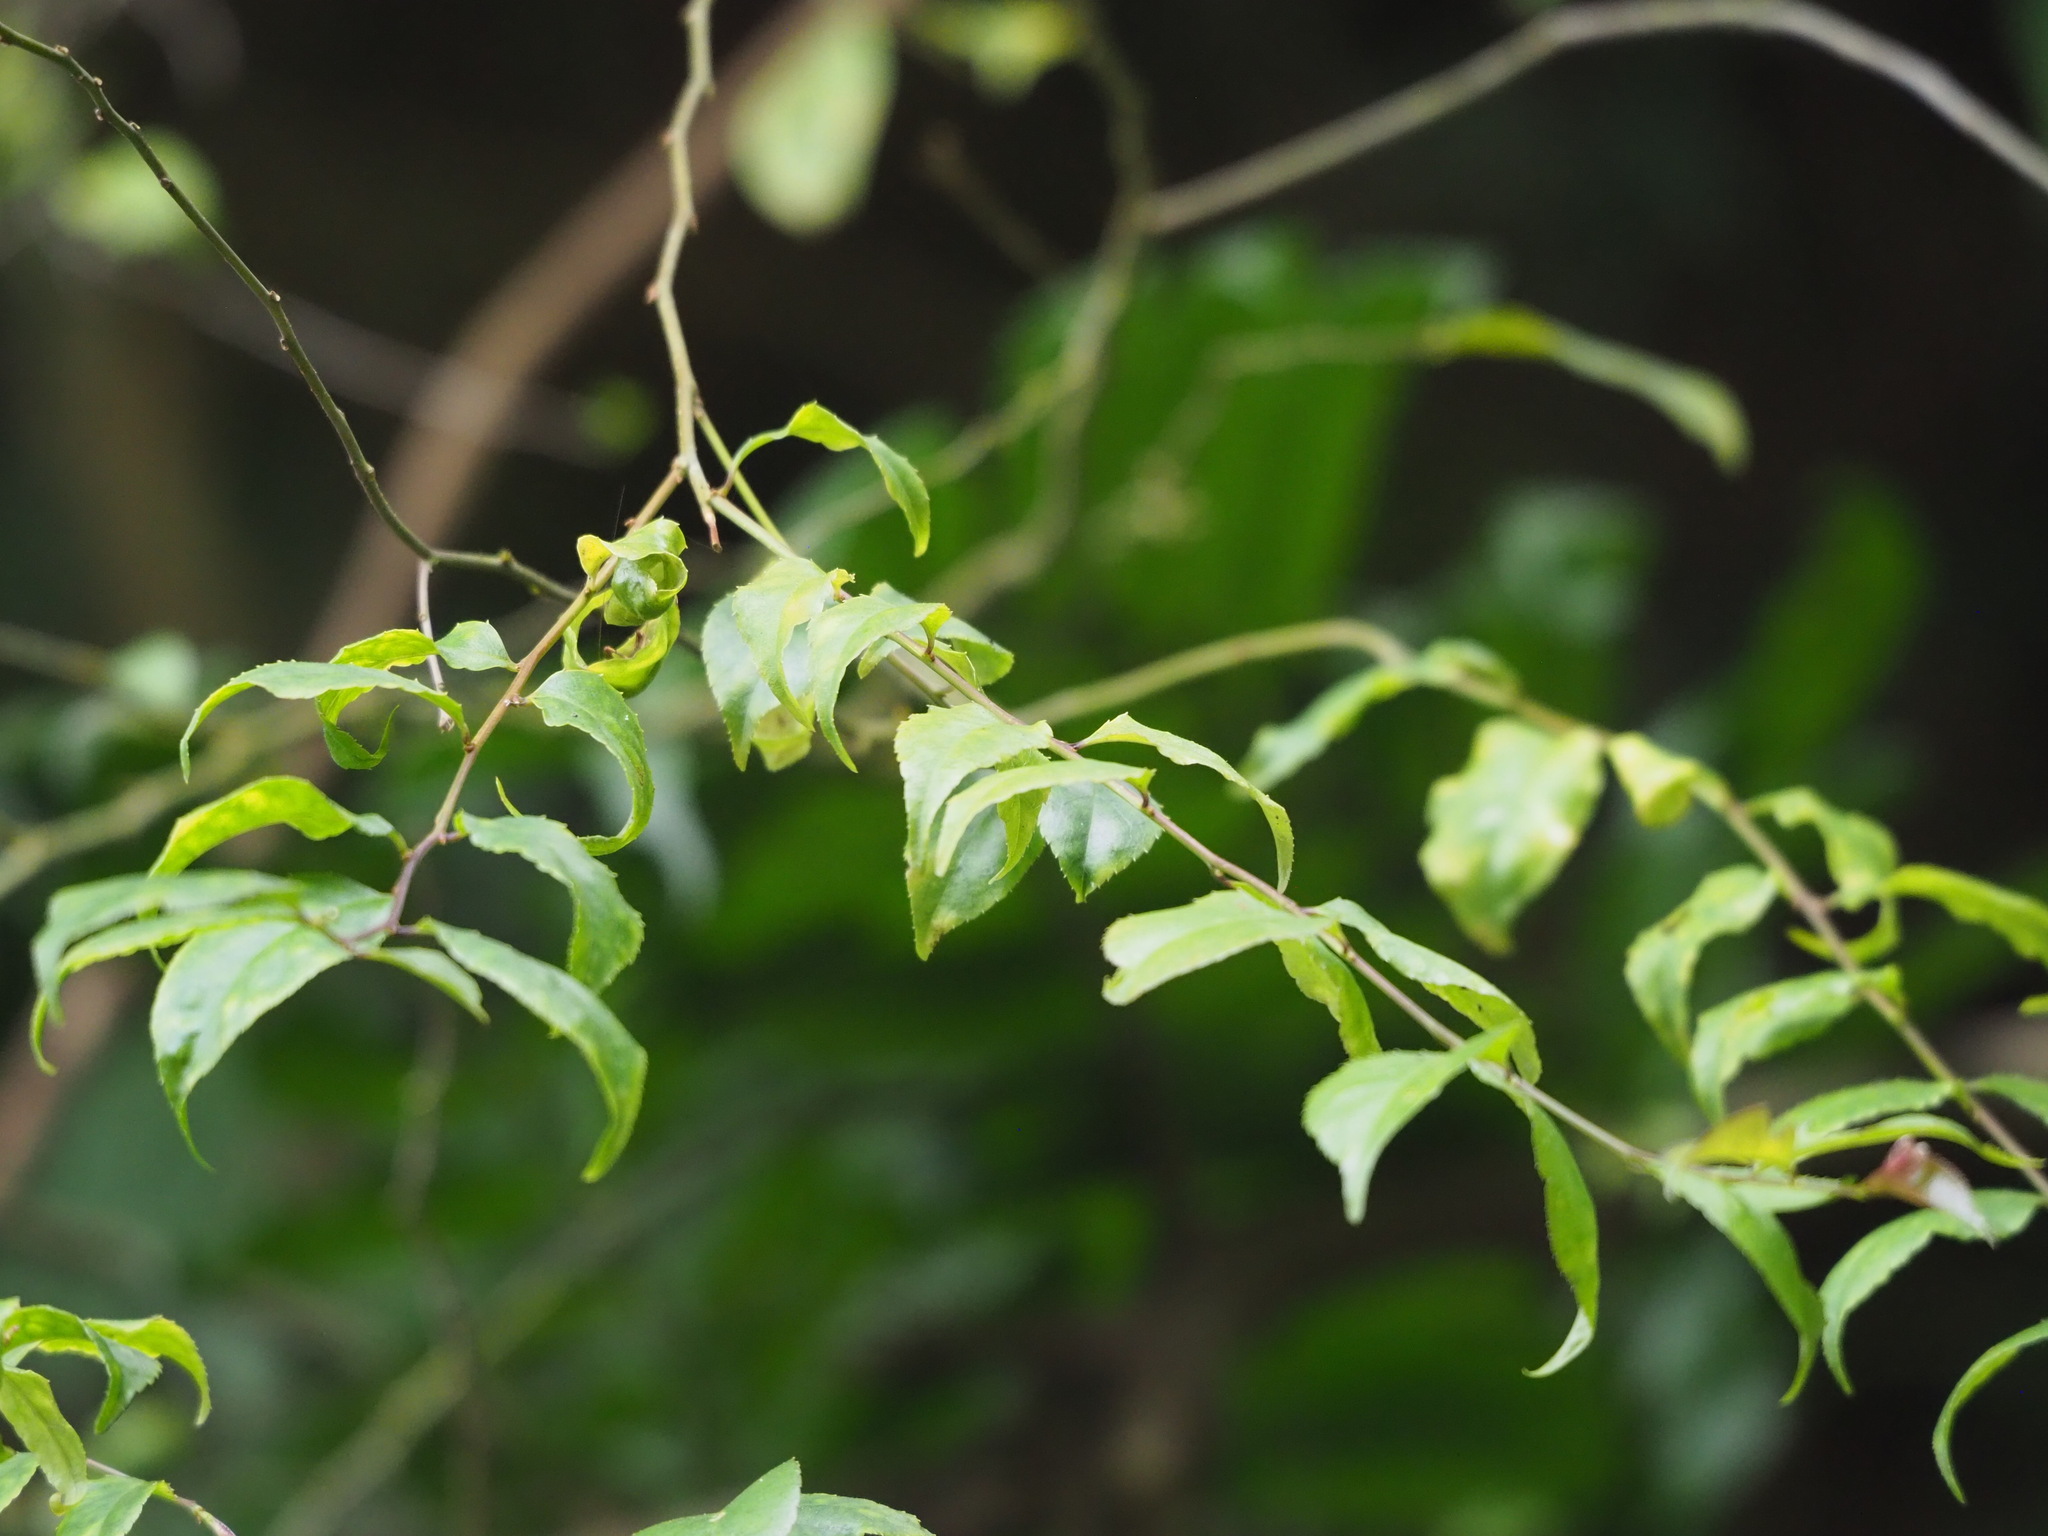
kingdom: Plantae
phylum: Tracheophyta
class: Magnoliopsida
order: Aquifoliales
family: Aquifoliaceae
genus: Ilex
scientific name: Ilex asprella
